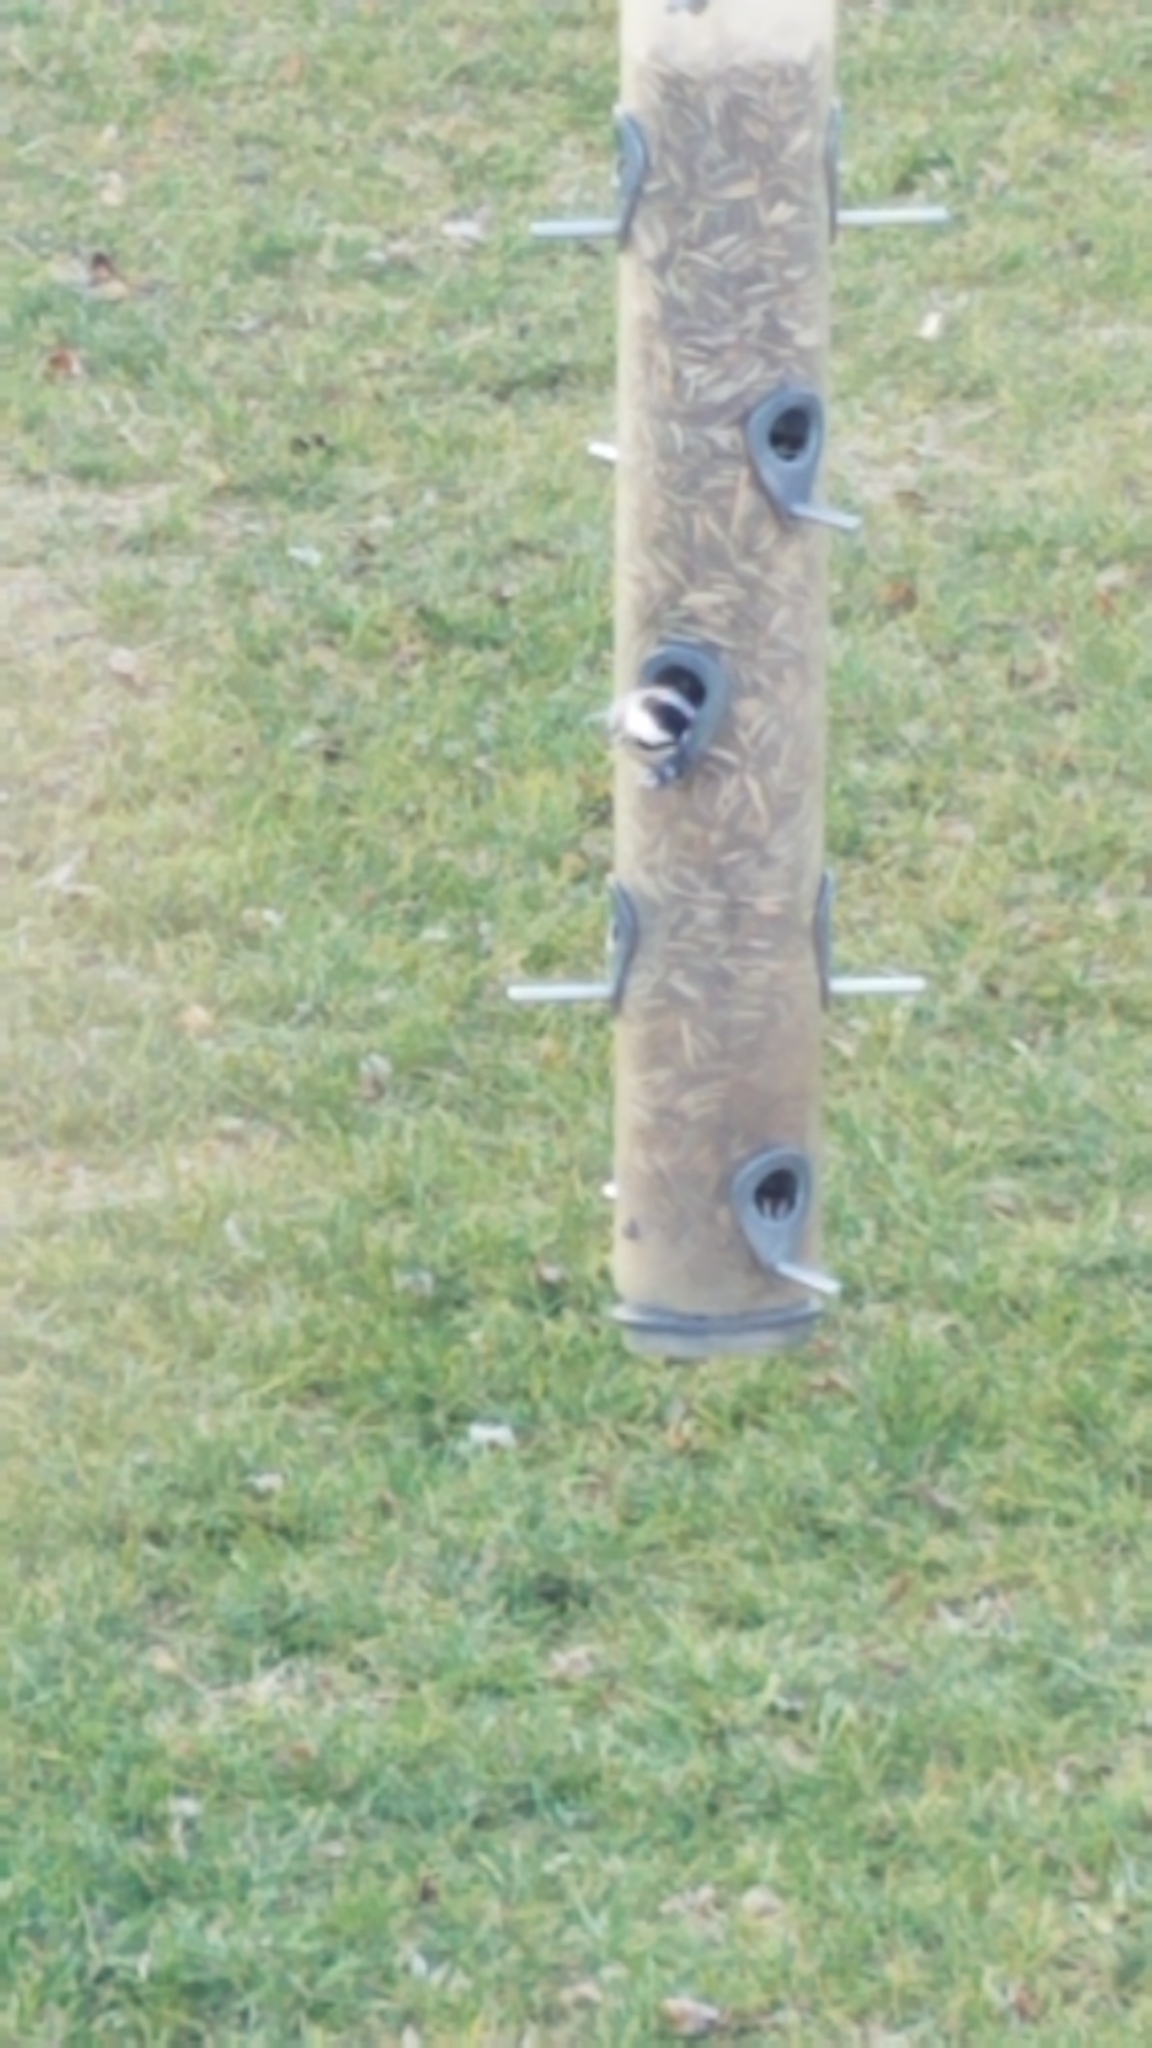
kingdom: Animalia
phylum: Chordata
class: Aves
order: Passeriformes
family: Paridae
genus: Poecile
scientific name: Poecile atricapillus
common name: Black-capped chickadee
